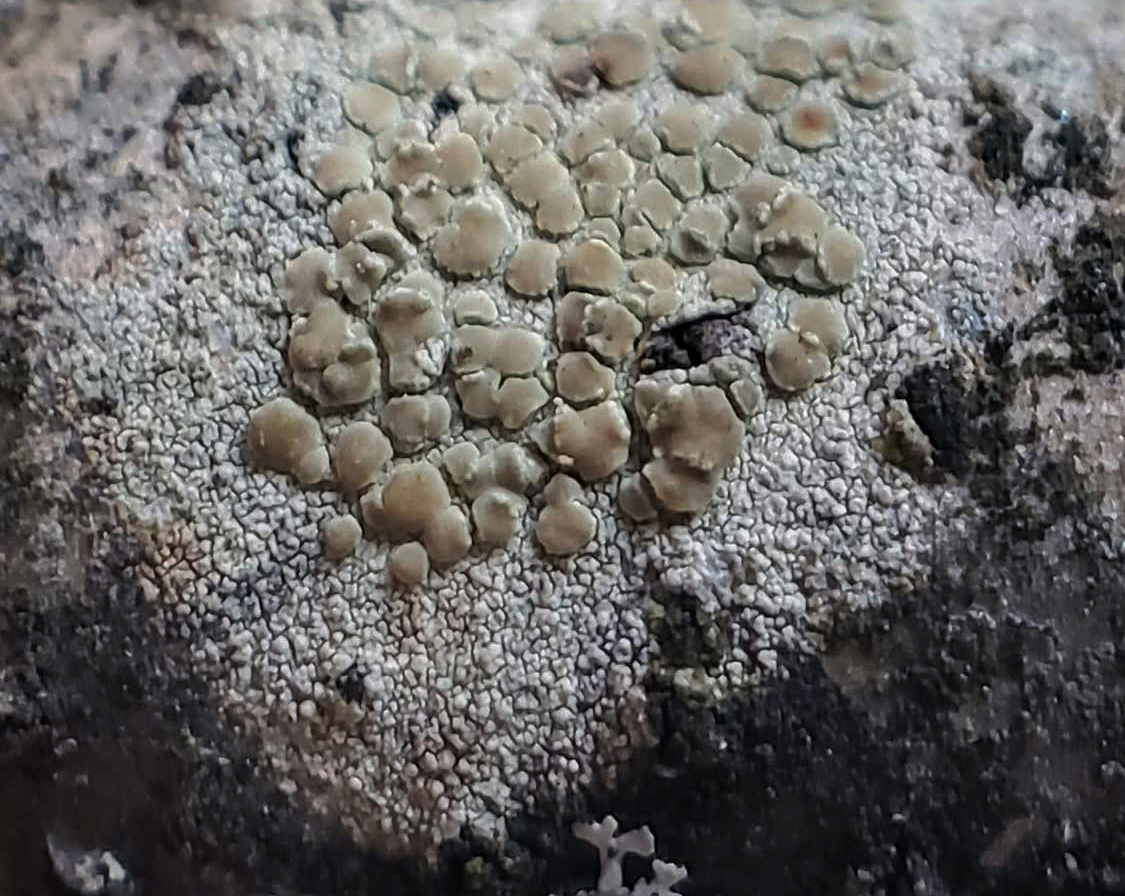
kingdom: Fungi
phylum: Ascomycota
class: Lecanoromycetes
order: Lecanorales
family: Lecanoraceae
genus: Lecanora
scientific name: Lecanora strobilina
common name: Mealy rim-lichen
